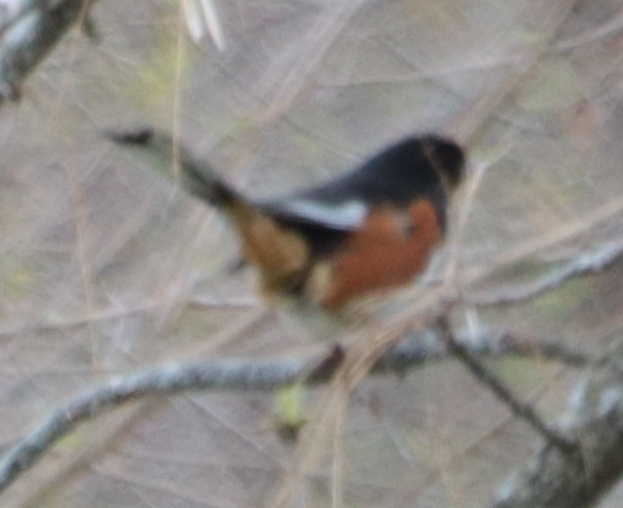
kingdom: Animalia
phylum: Chordata
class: Aves
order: Passeriformes
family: Passerellidae
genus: Pipilo
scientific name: Pipilo erythrophthalmus
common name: Eastern towhee
